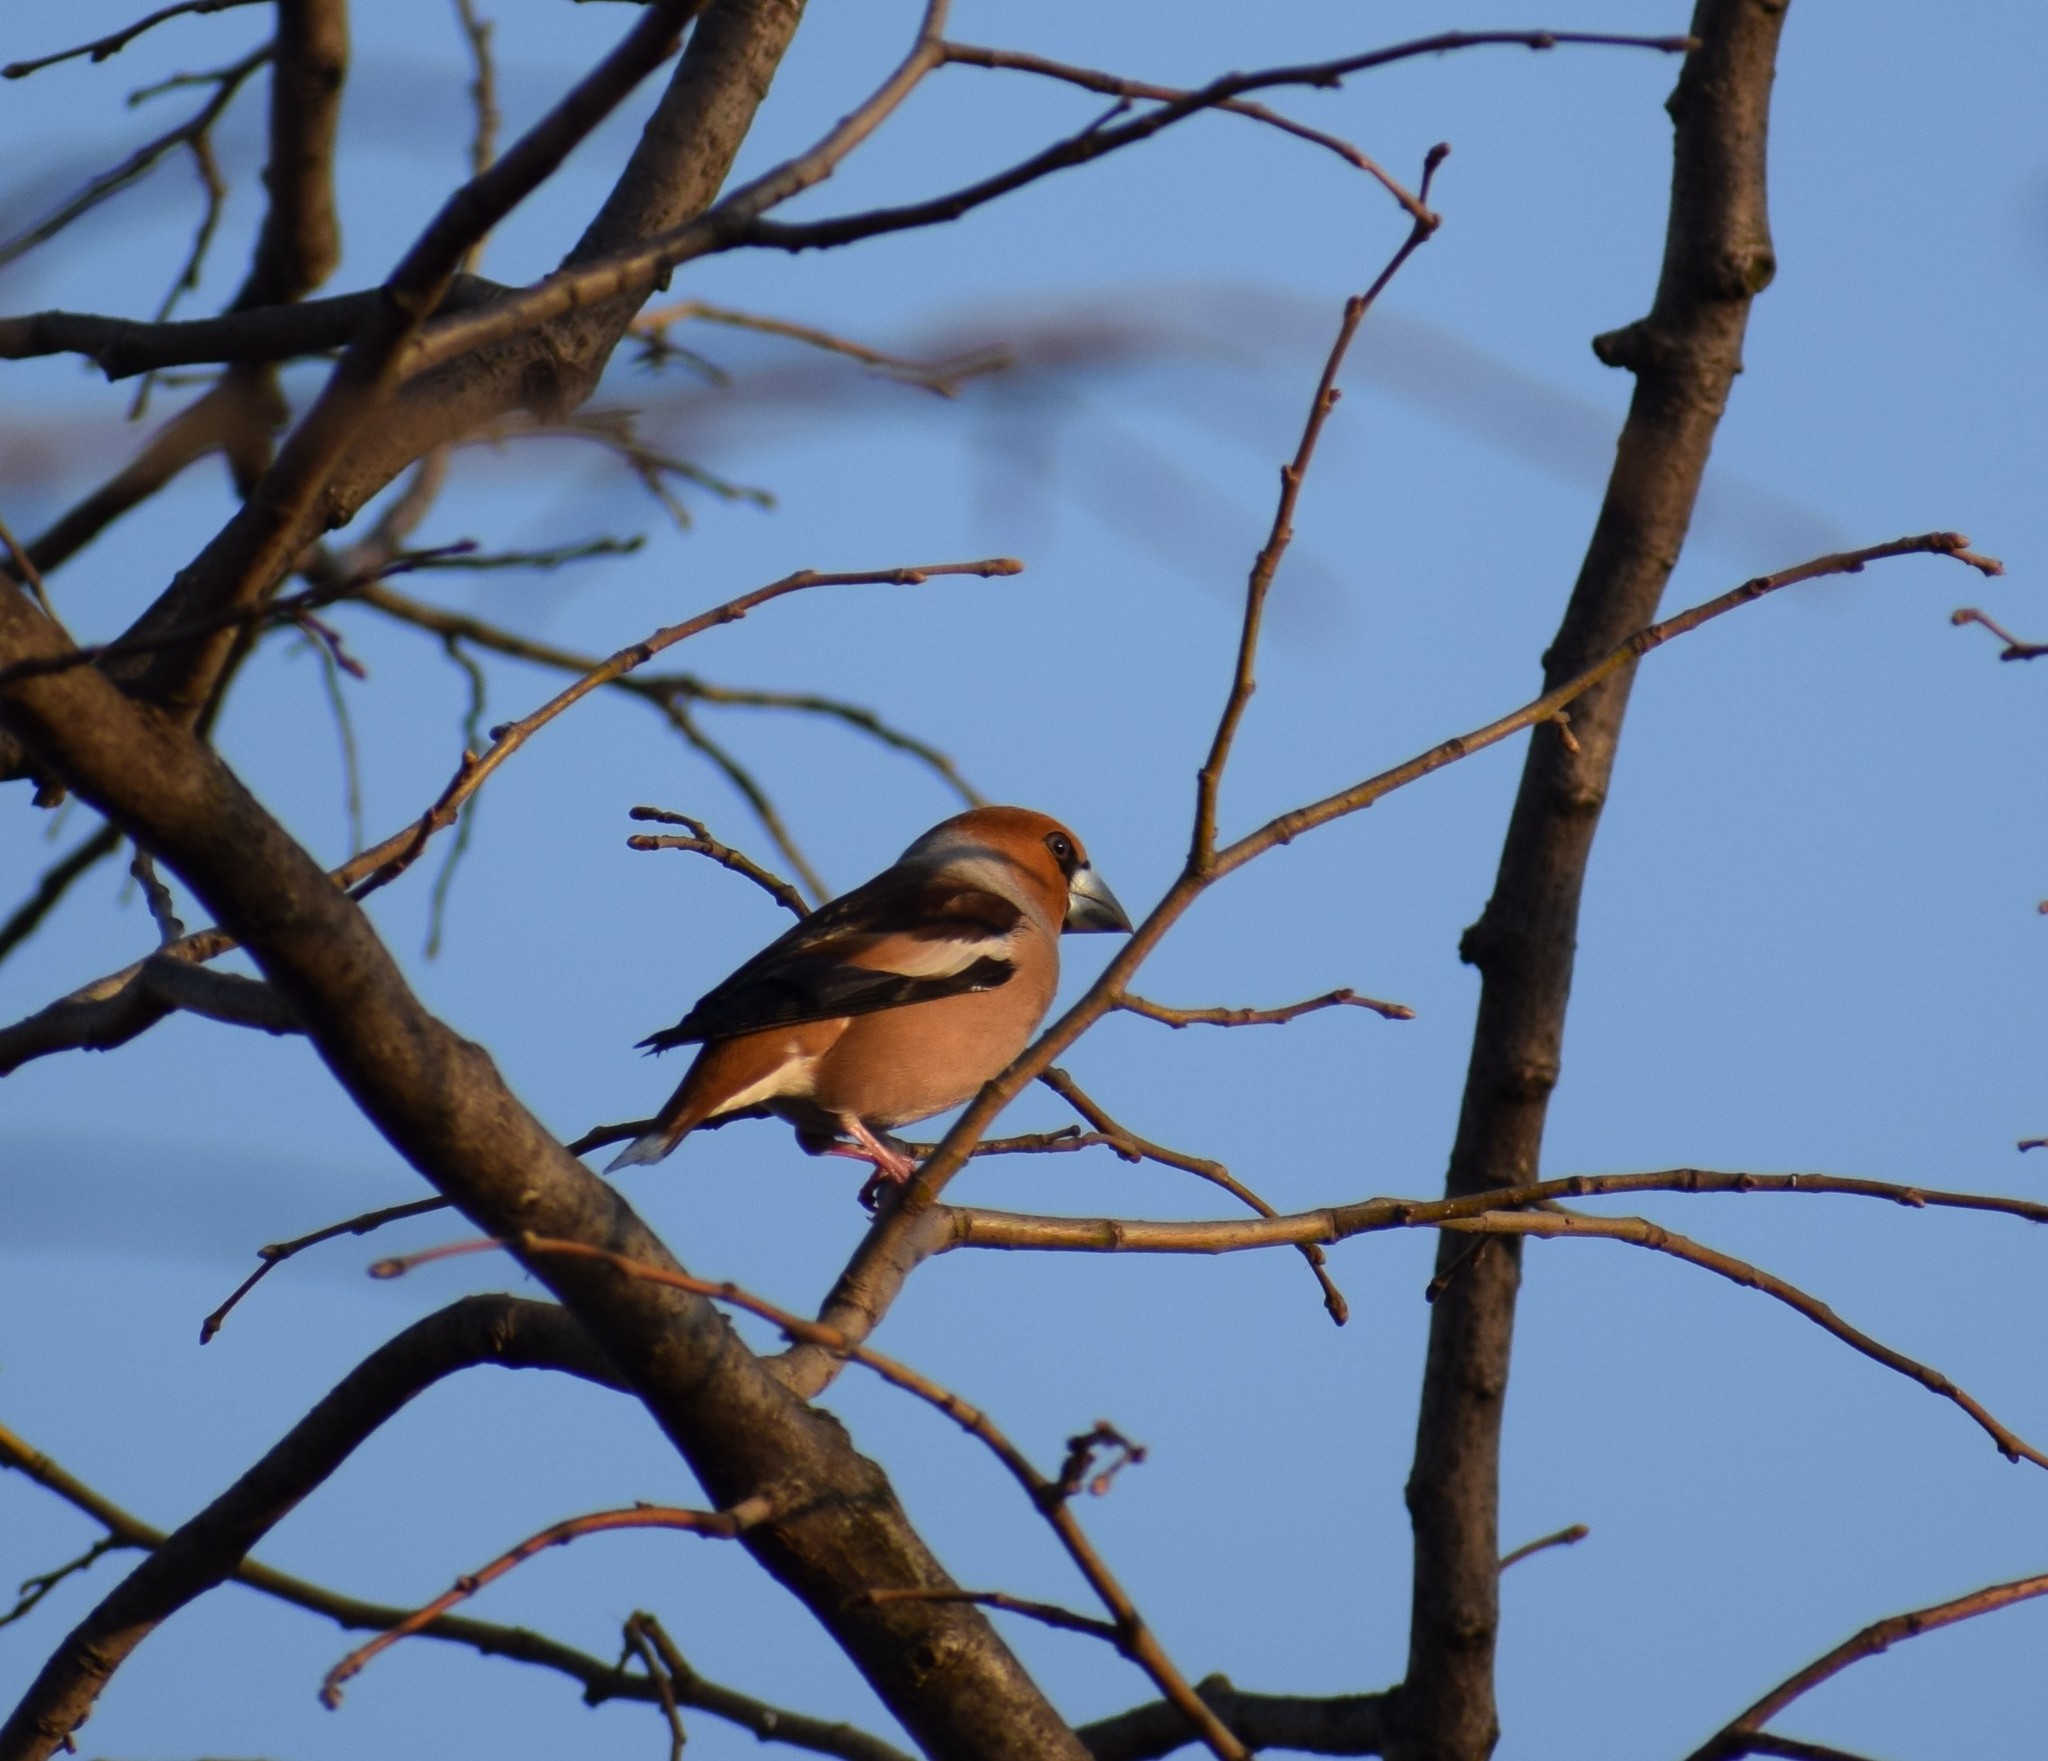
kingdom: Animalia
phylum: Chordata
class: Aves
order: Passeriformes
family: Fringillidae
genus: Coccothraustes
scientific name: Coccothraustes coccothraustes
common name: Hawfinch
